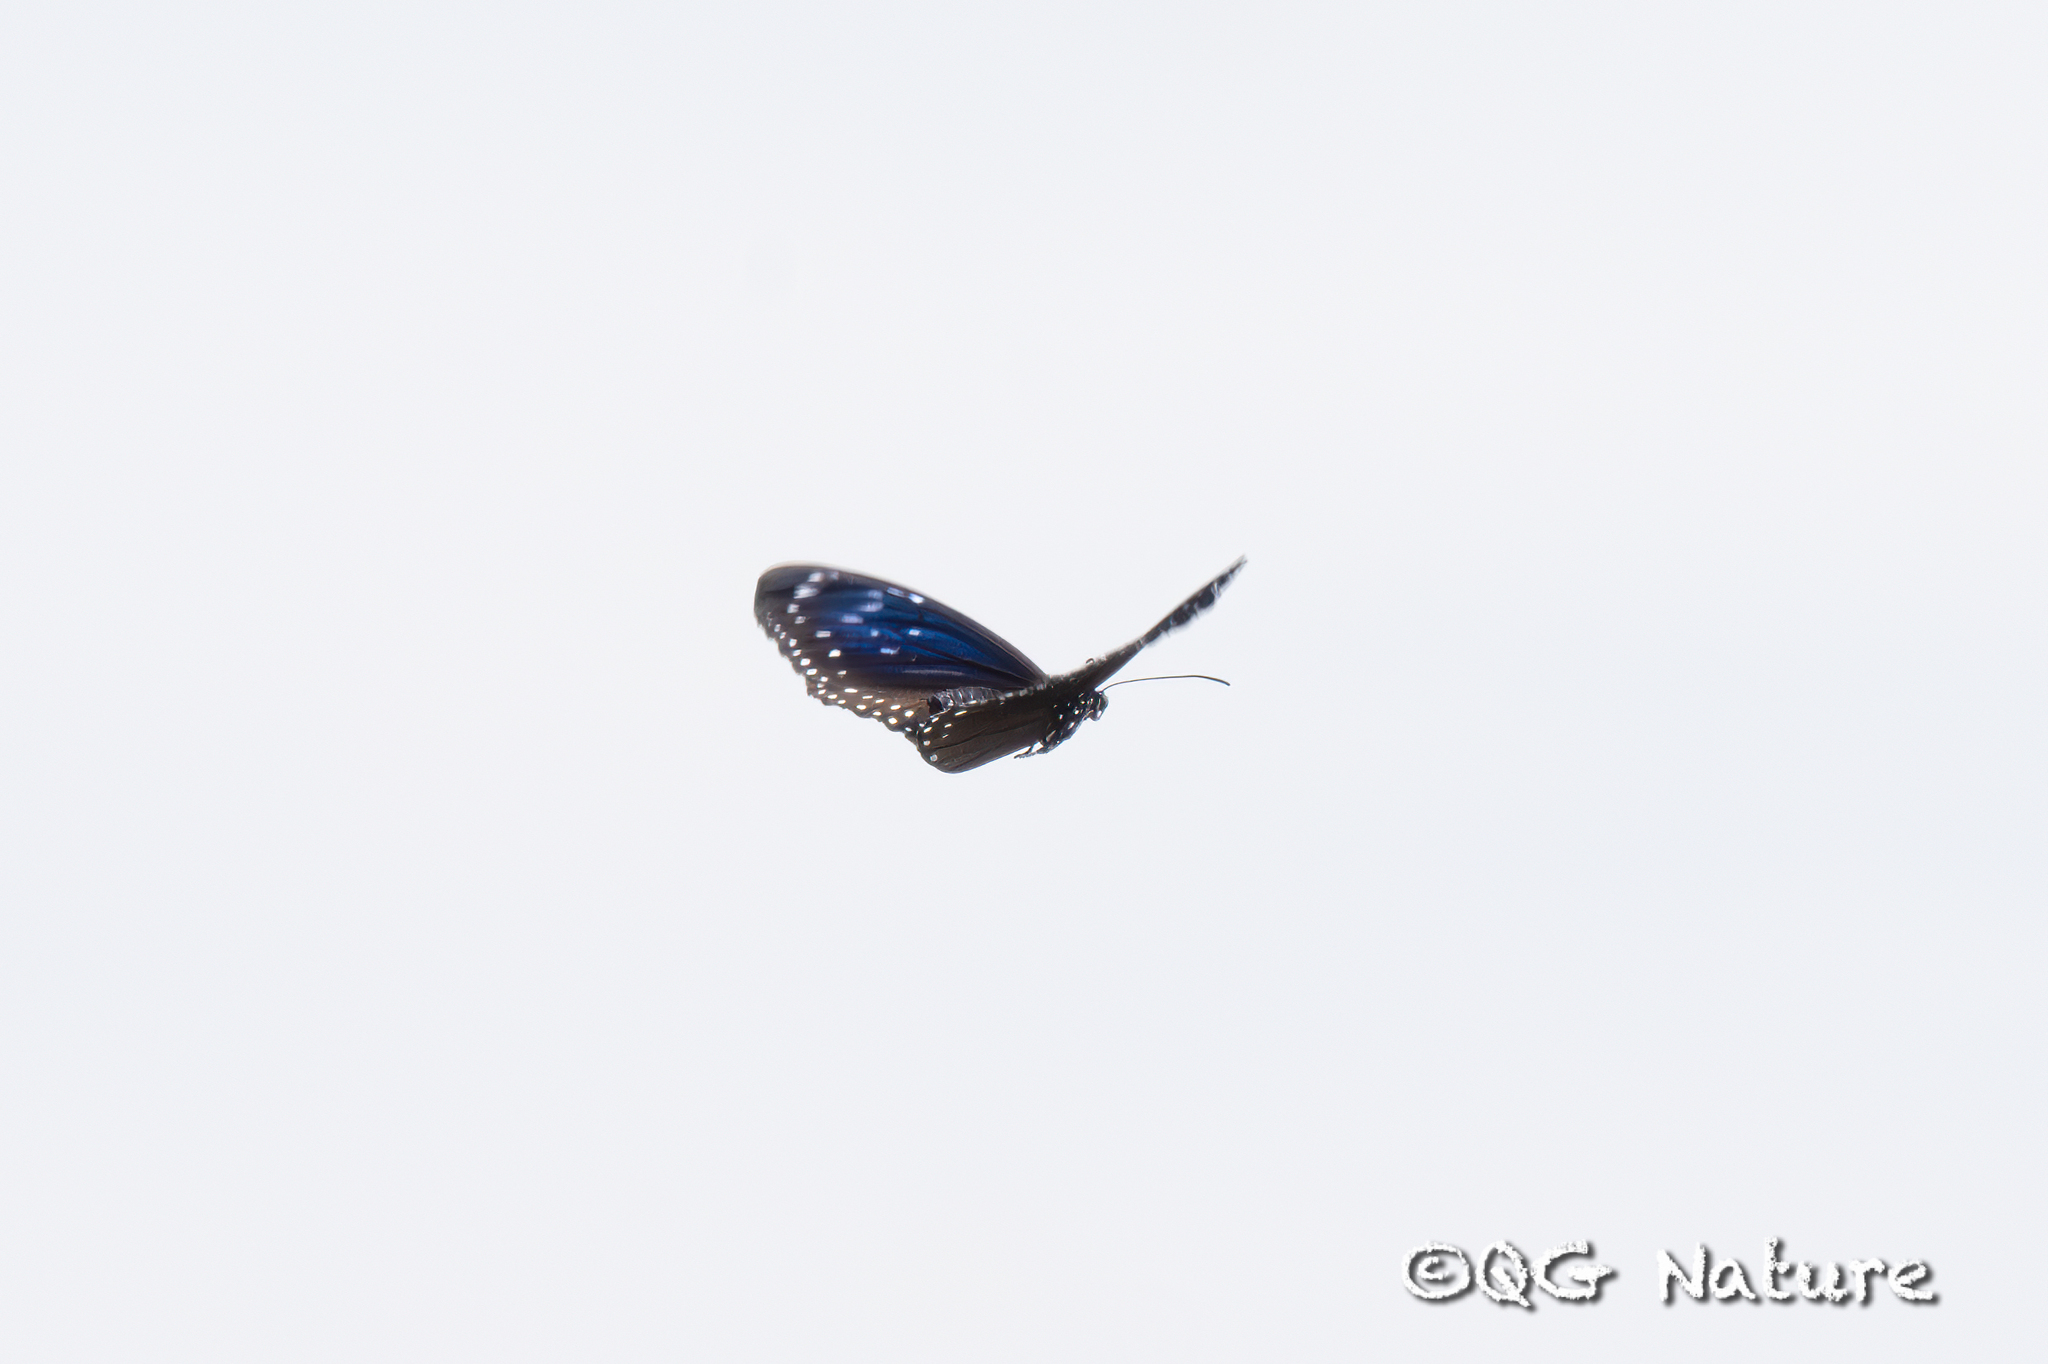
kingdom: Animalia
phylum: Arthropoda
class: Insecta
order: Lepidoptera
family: Nymphalidae
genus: Euploea
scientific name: Euploea midamus
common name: Blue-spotted crow butterfly
